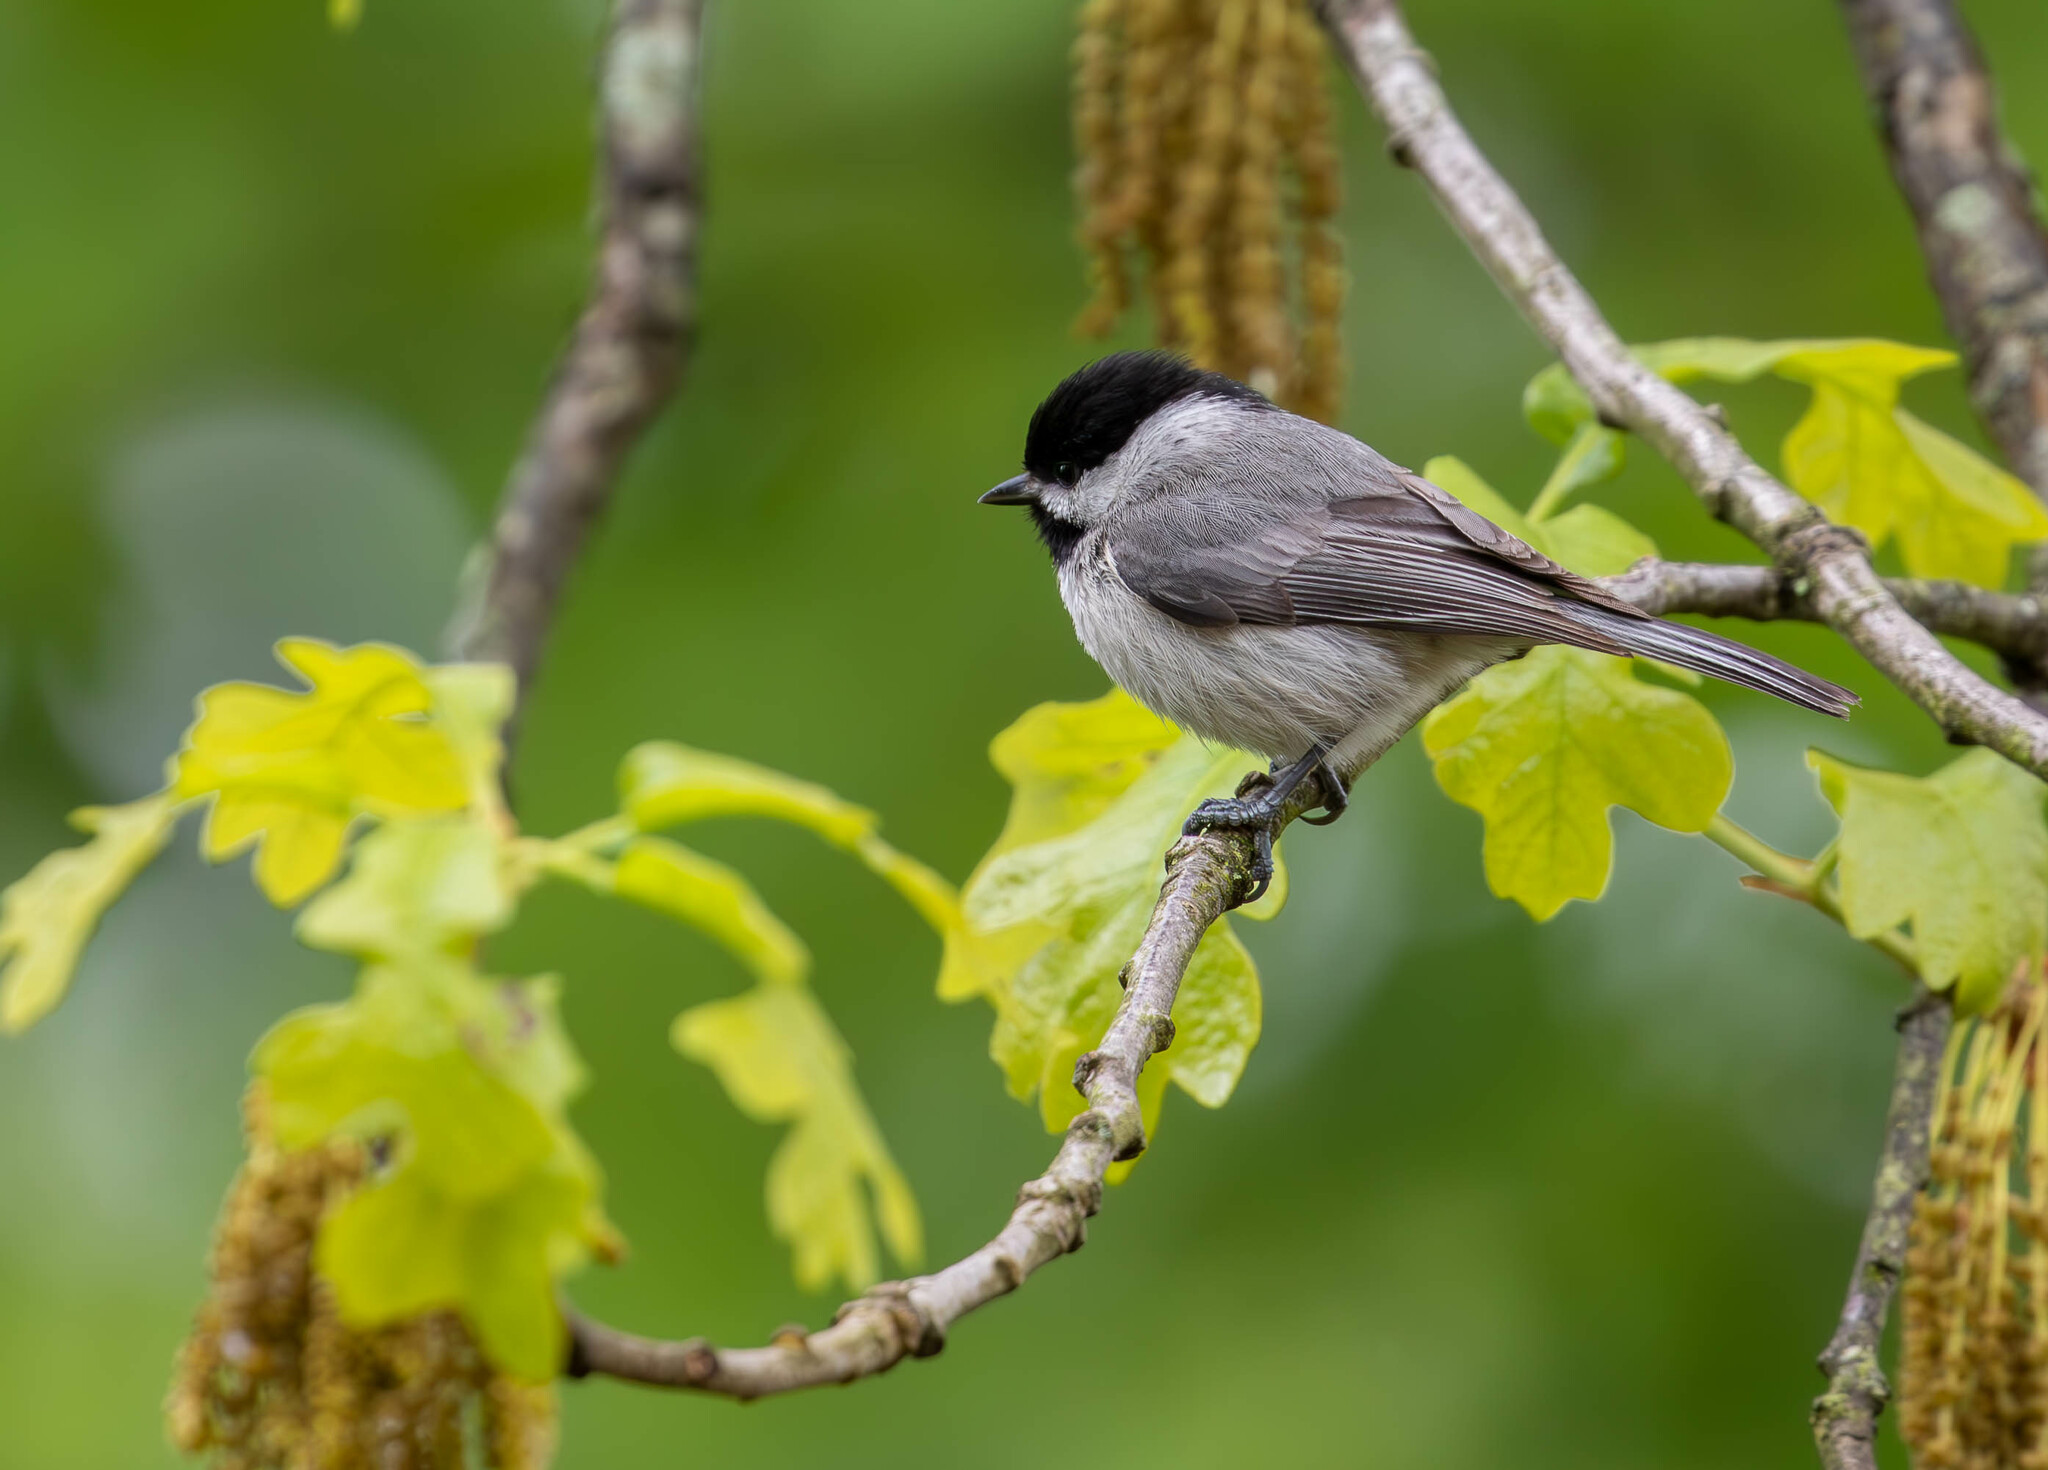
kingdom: Animalia
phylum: Chordata
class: Aves
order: Passeriformes
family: Paridae
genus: Poecile
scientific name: Poecile carolinensis
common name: Carolina chickadee
